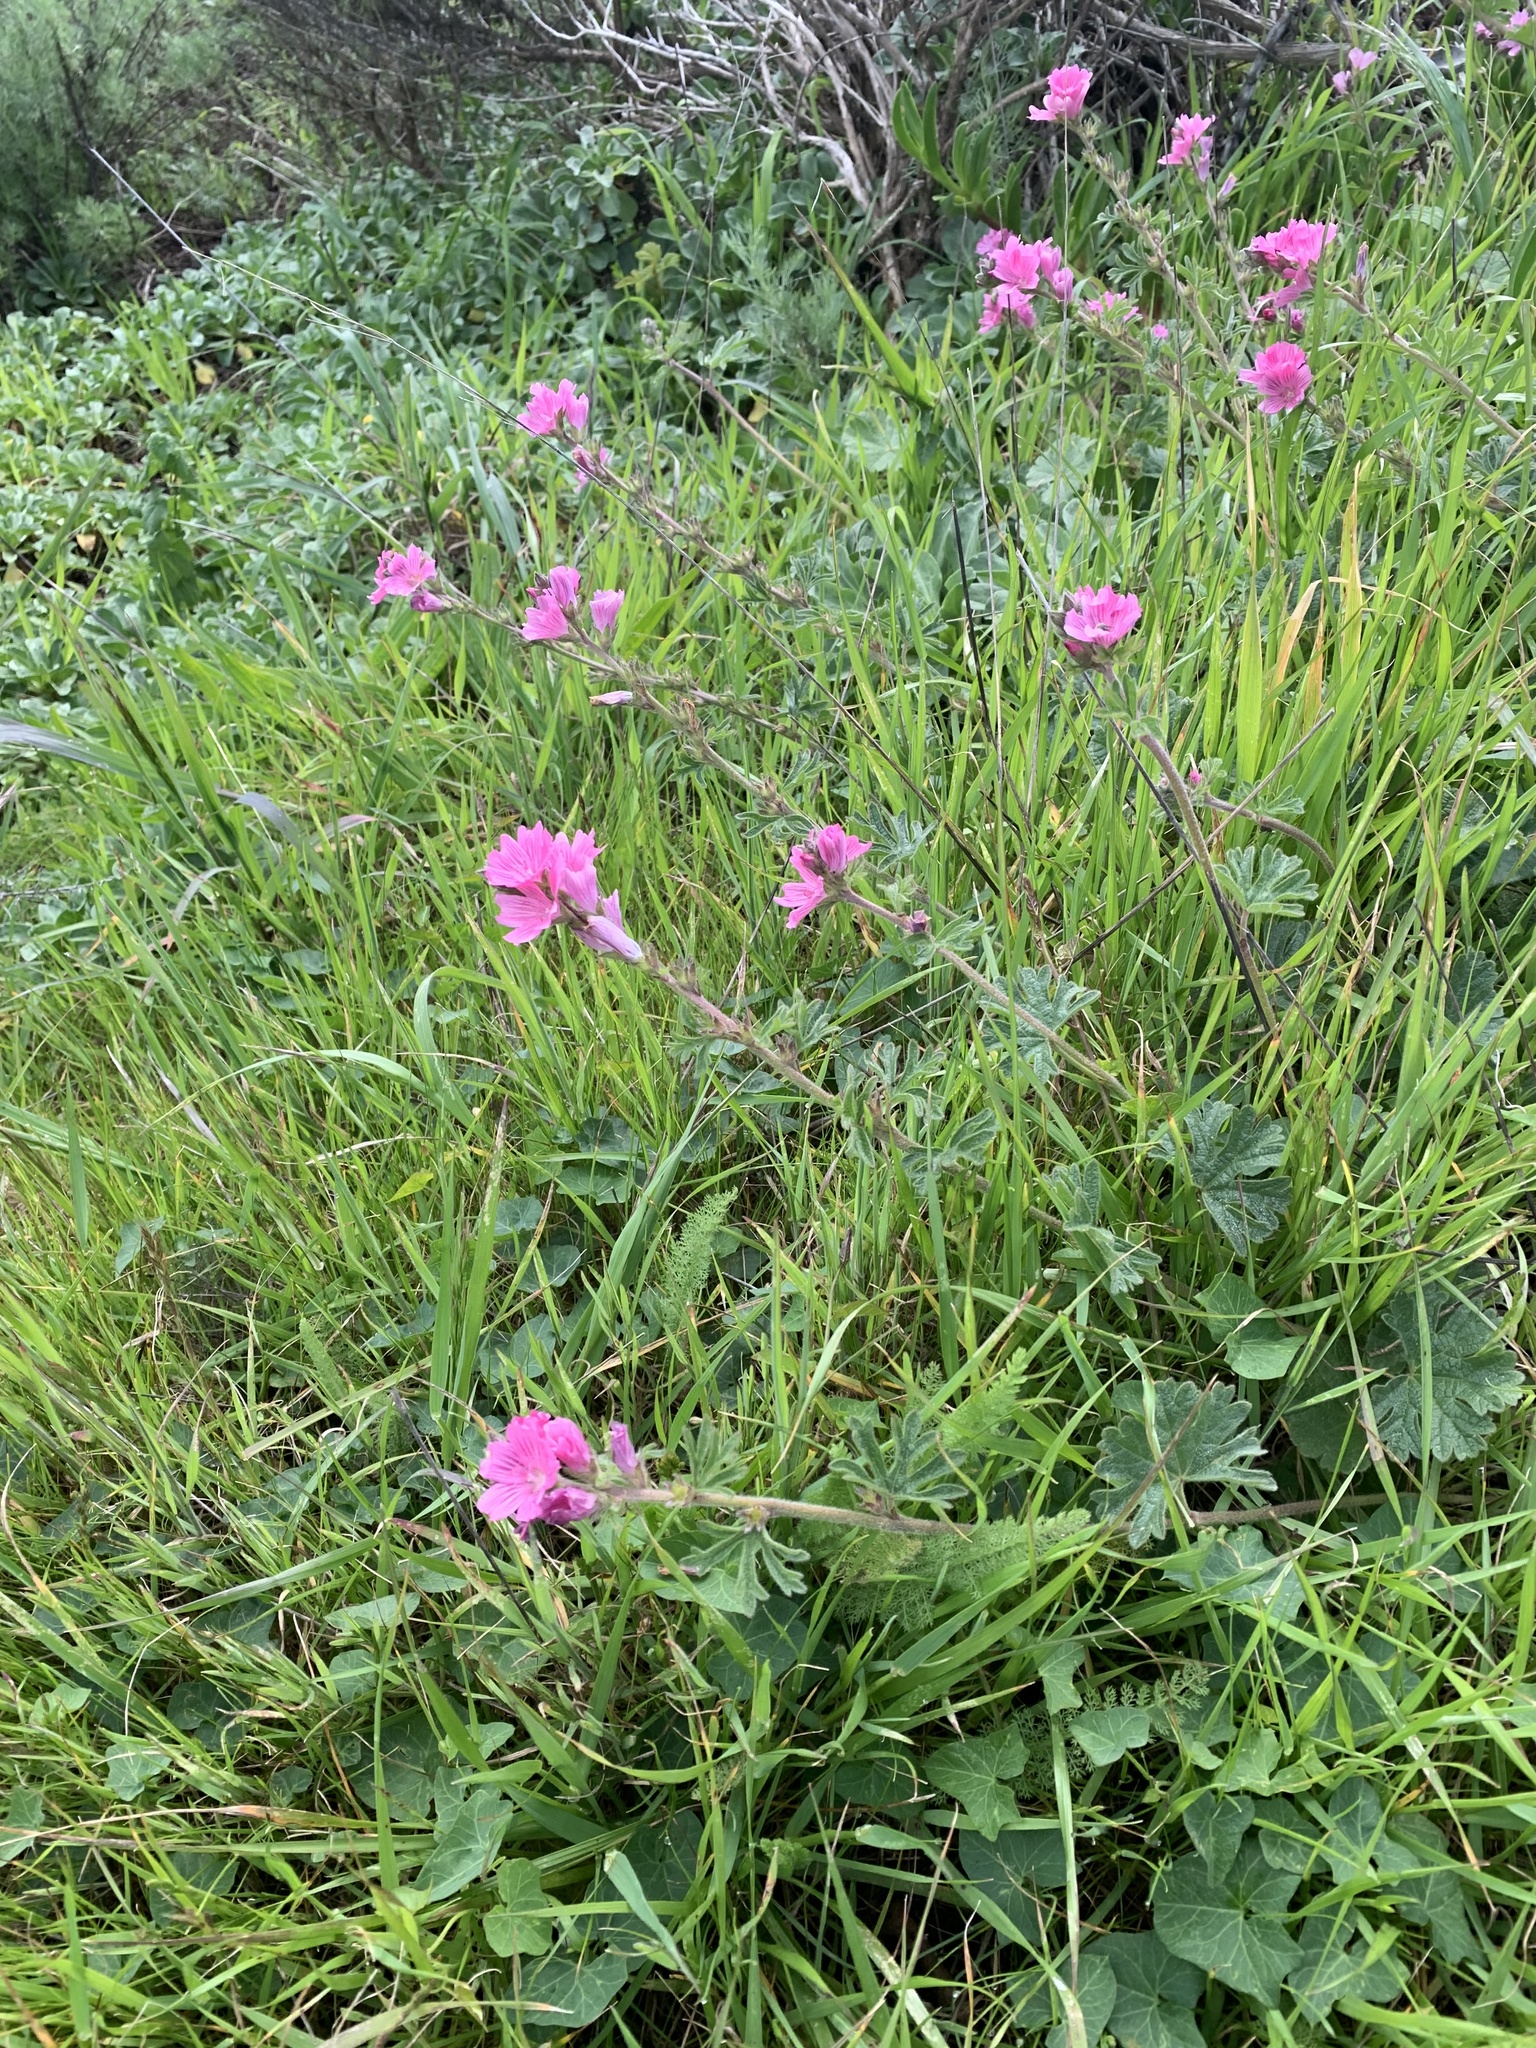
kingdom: Plantae
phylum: Tracheophyta
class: Magnoliopsida
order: Malvales
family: Malvaceae
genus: Sidalcea
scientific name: Sidalcea malviflora
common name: Greek mallow
